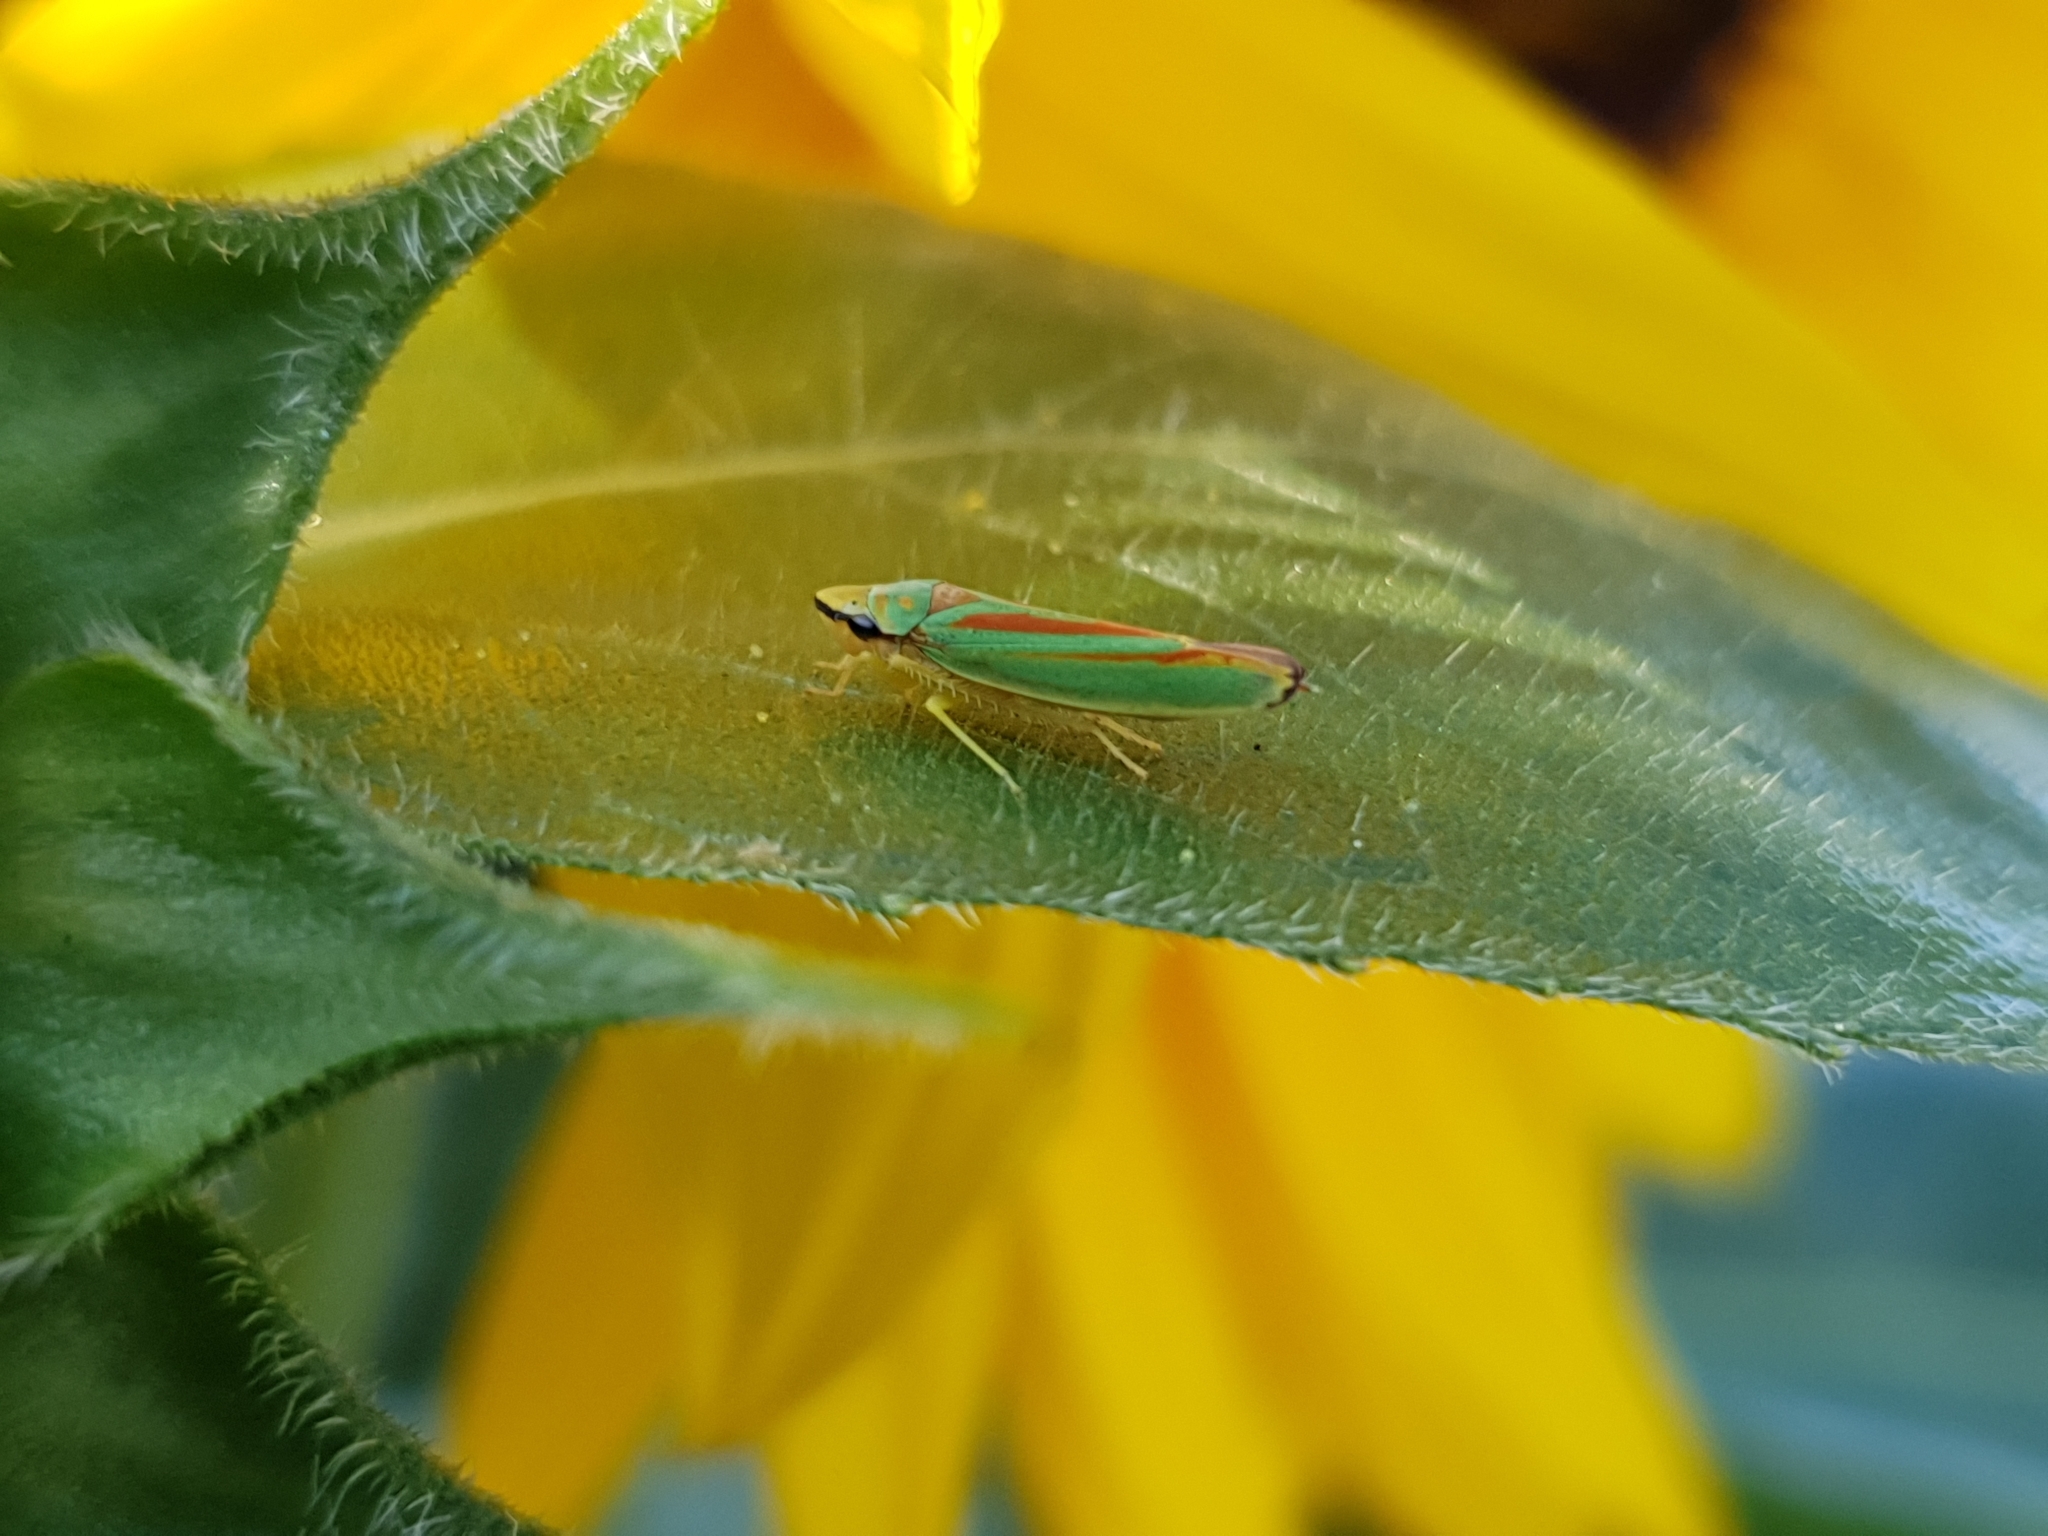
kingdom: Animalia
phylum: Arthropoda
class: Insecta
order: Hemiptera
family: Cicadellidae
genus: Graphocephala
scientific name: Graphocephala fennahi
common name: Rhododendron leafhopper
